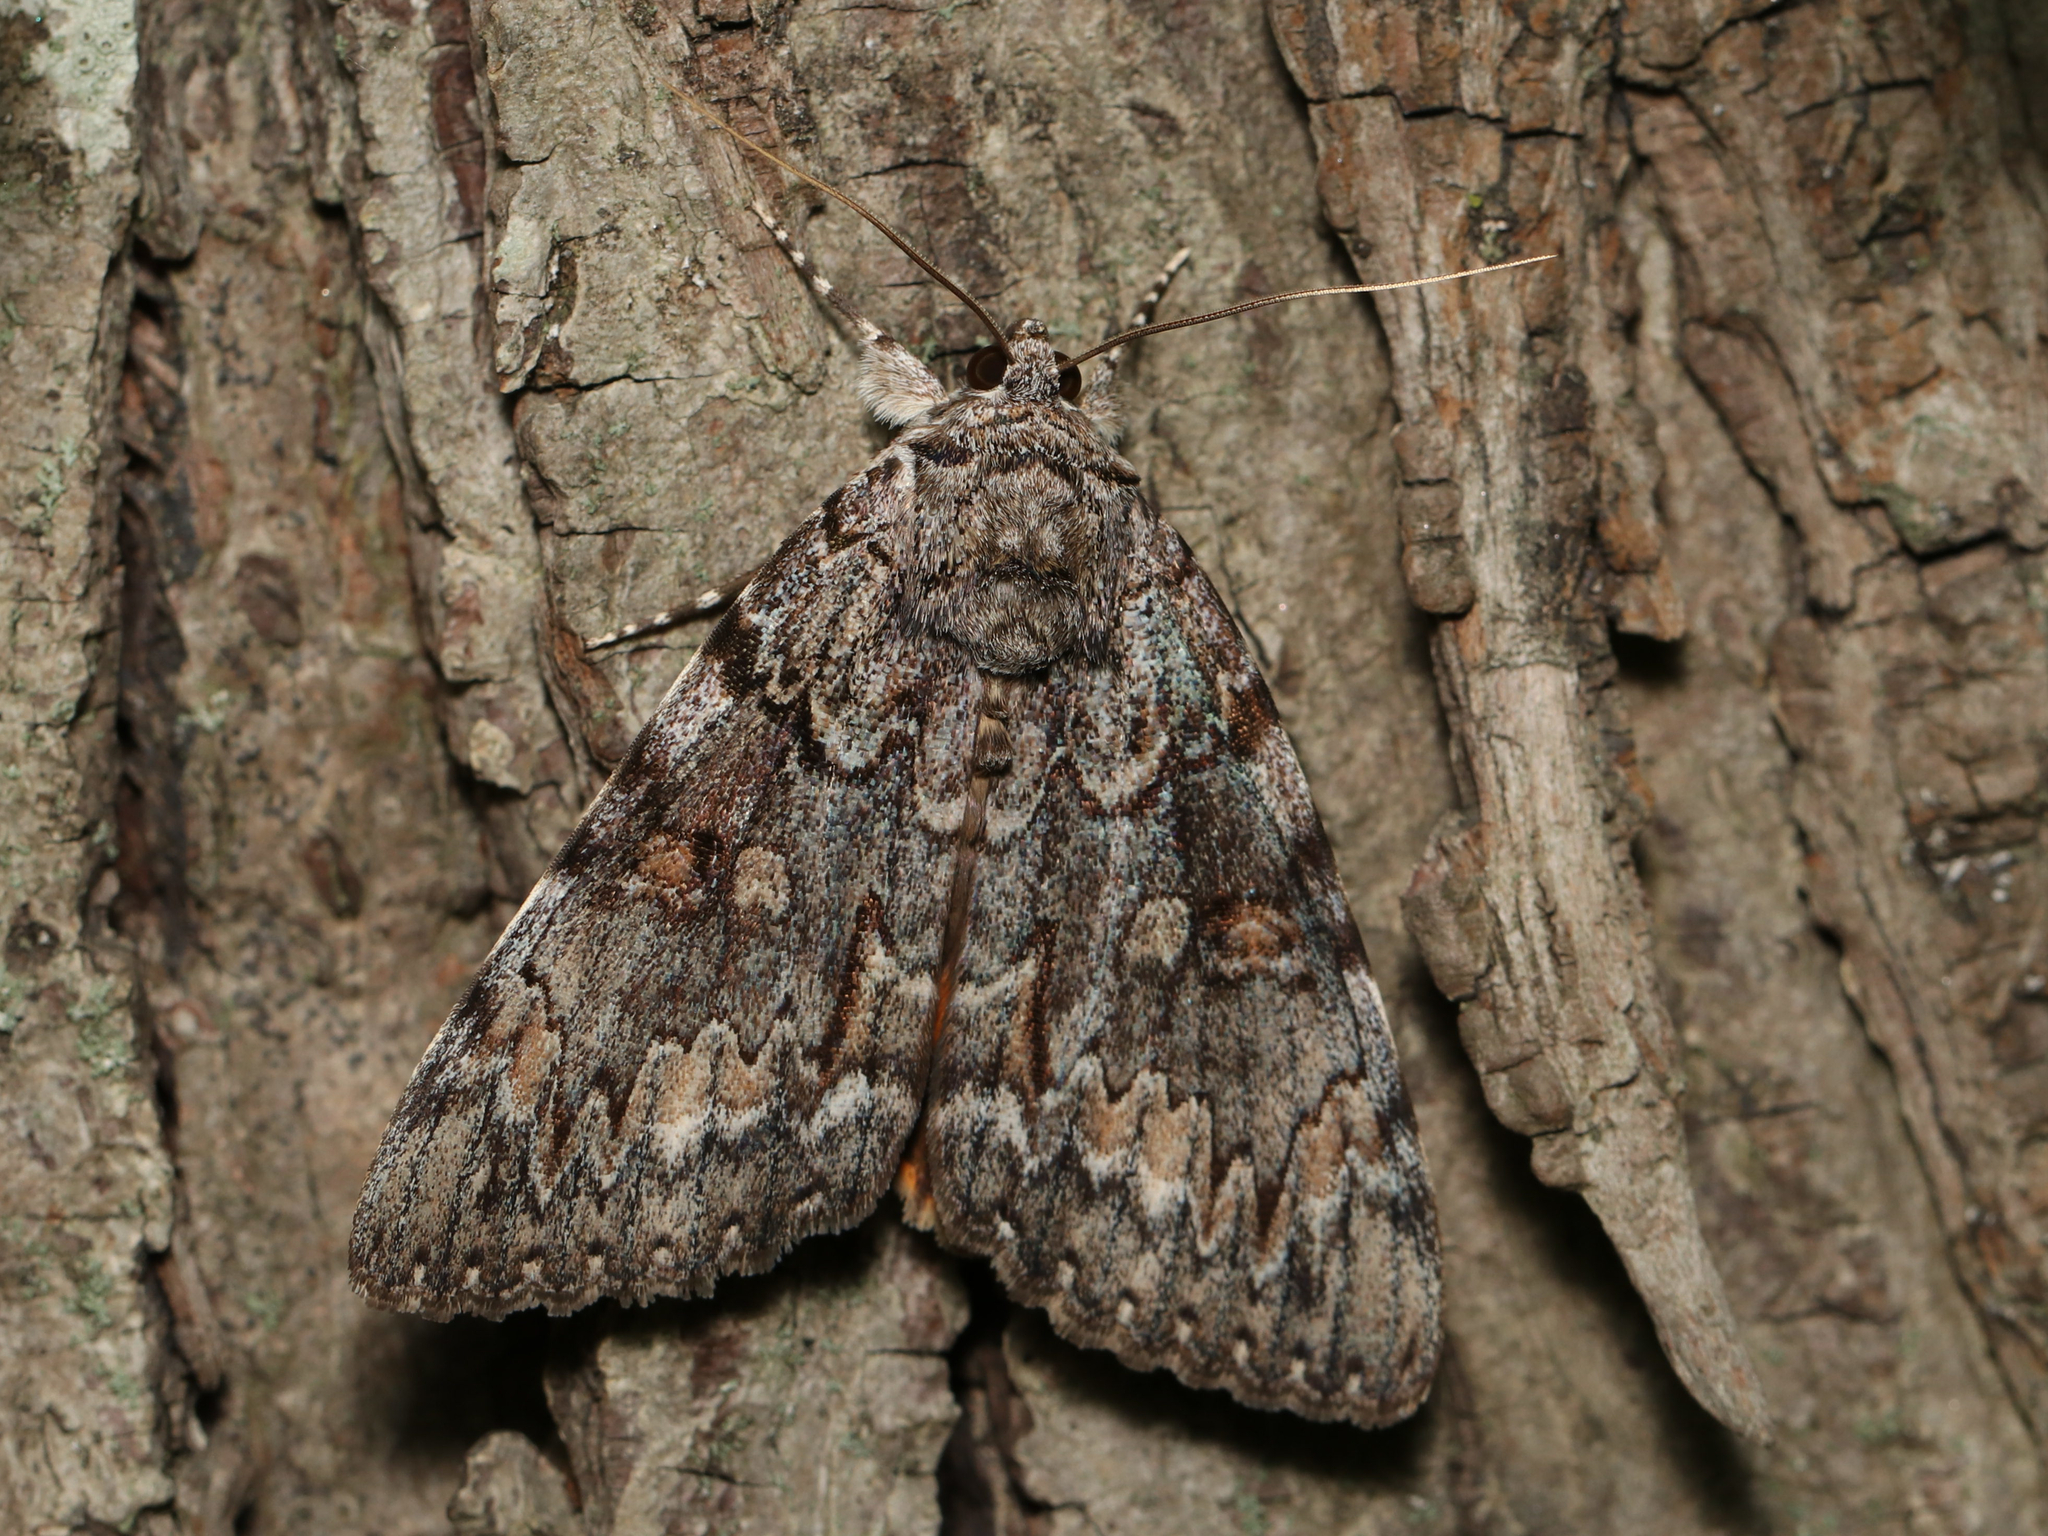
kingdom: Animalia
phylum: Arthropoda
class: Insecta
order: Lepidoptera
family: Erebidae
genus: Catocala
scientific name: Catocala palaeogama
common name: Oldwife underwing
